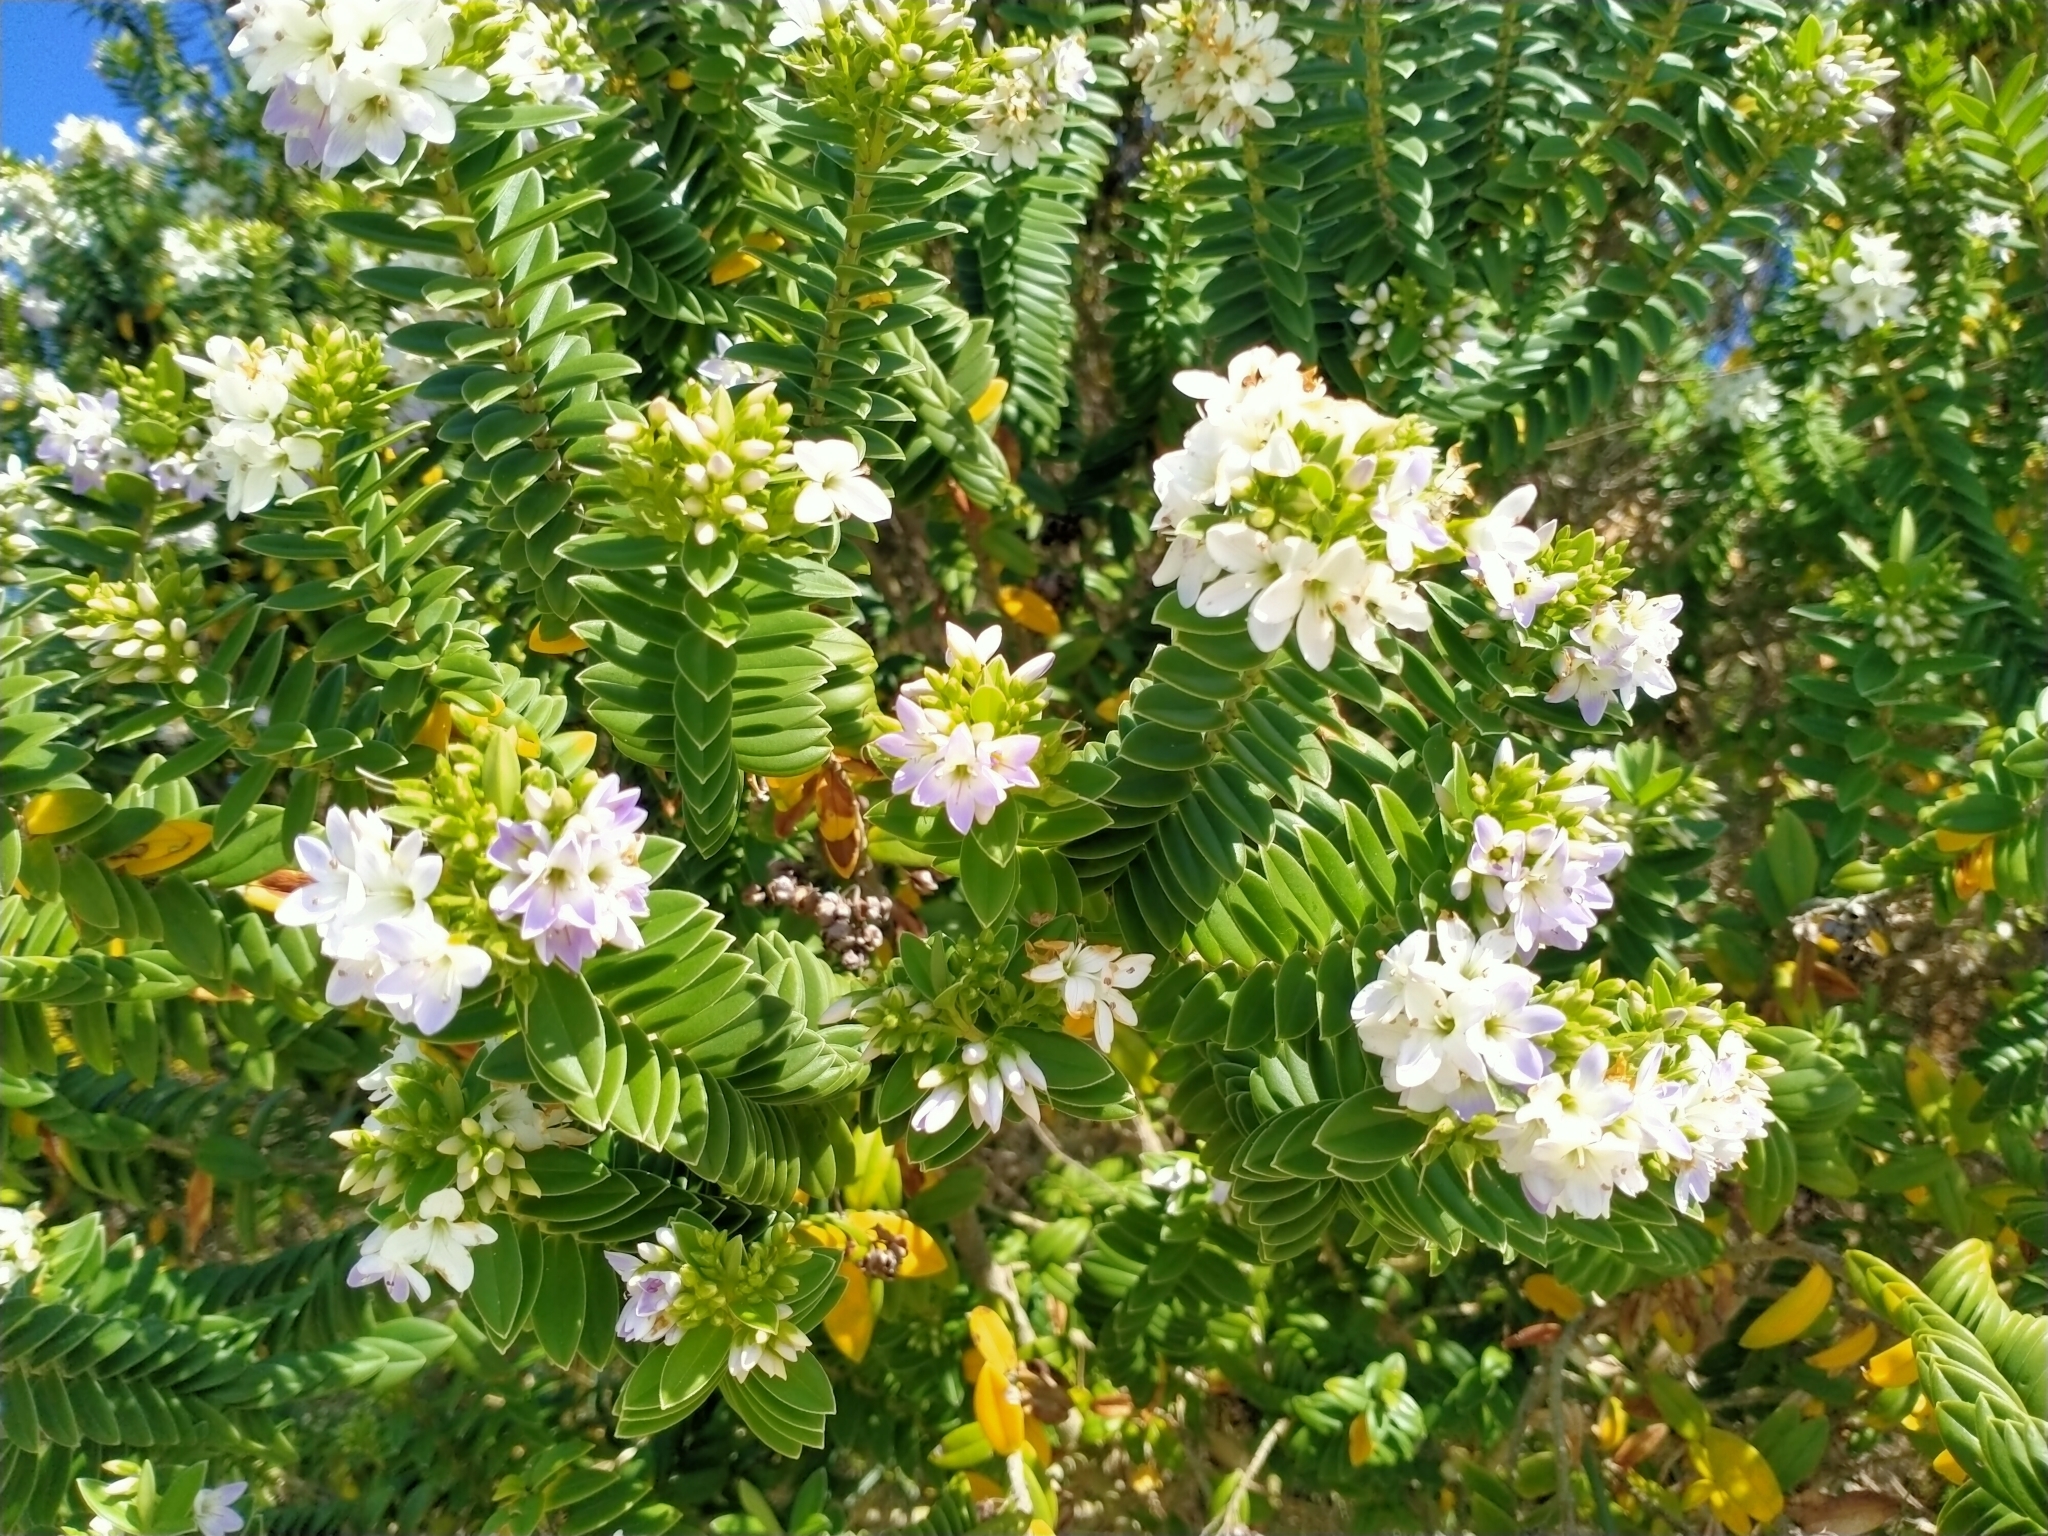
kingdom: Plantae
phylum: Tracheophyta
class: Magnoliopsida
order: Lamiales
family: Plantaginaceae
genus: Veronica
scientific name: Veronica elliptica
